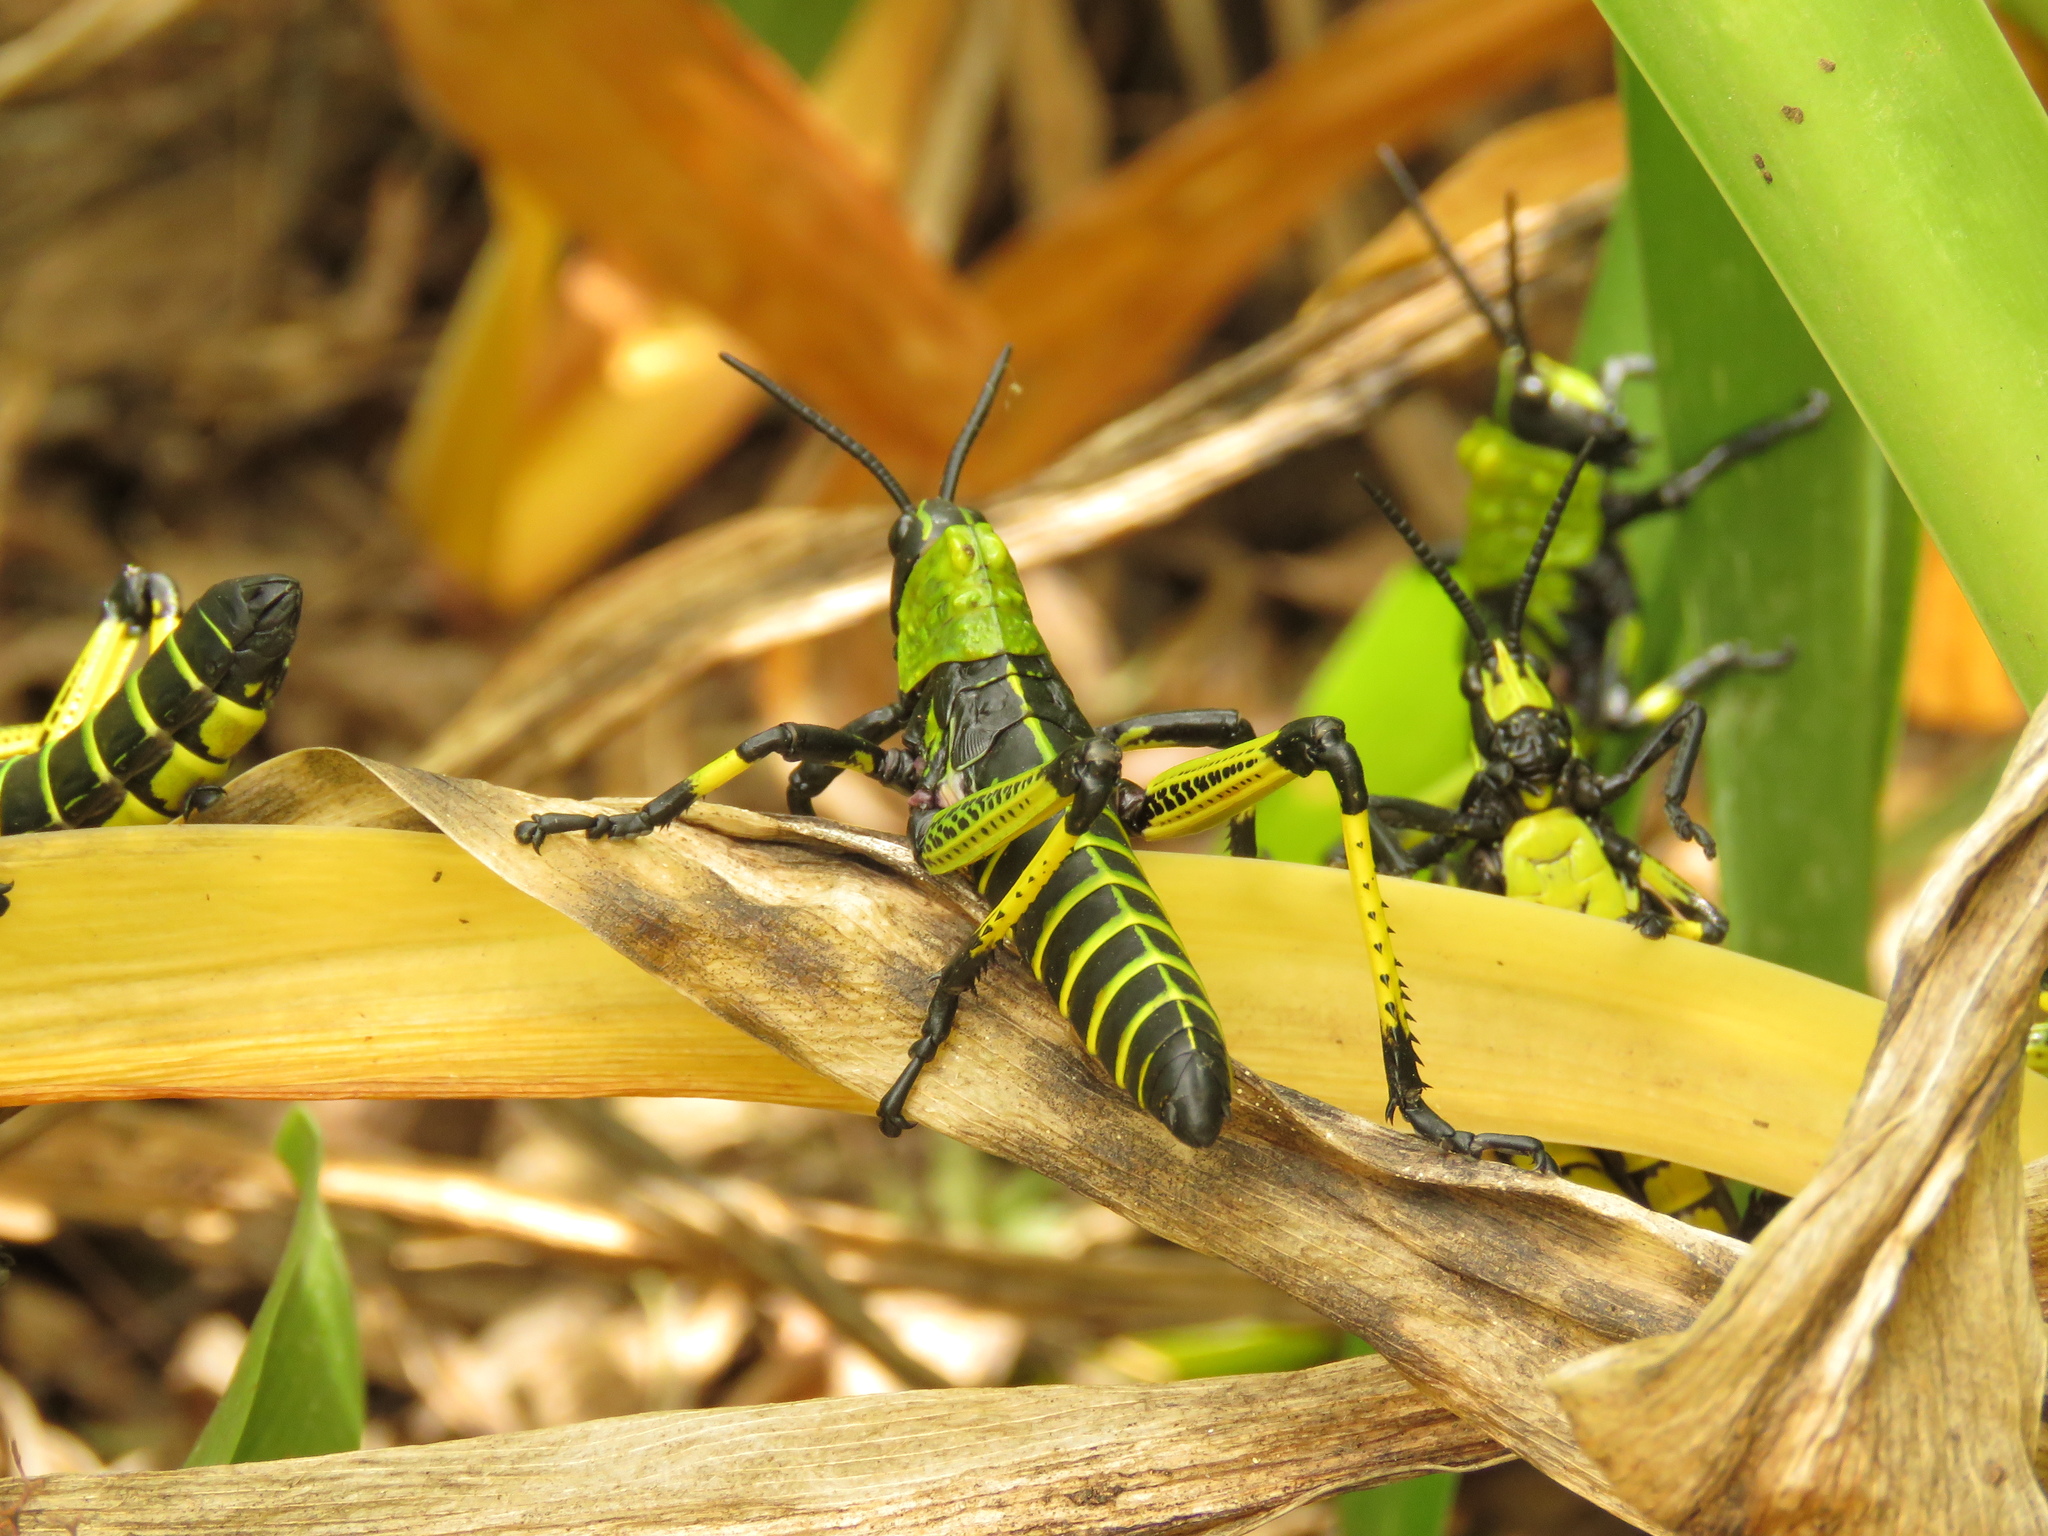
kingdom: Animalia
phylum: Arthropoda
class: Insecta
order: Orthoptera
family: Pyrgomorphidae
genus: Phymateus
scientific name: Phymateus leprosus
